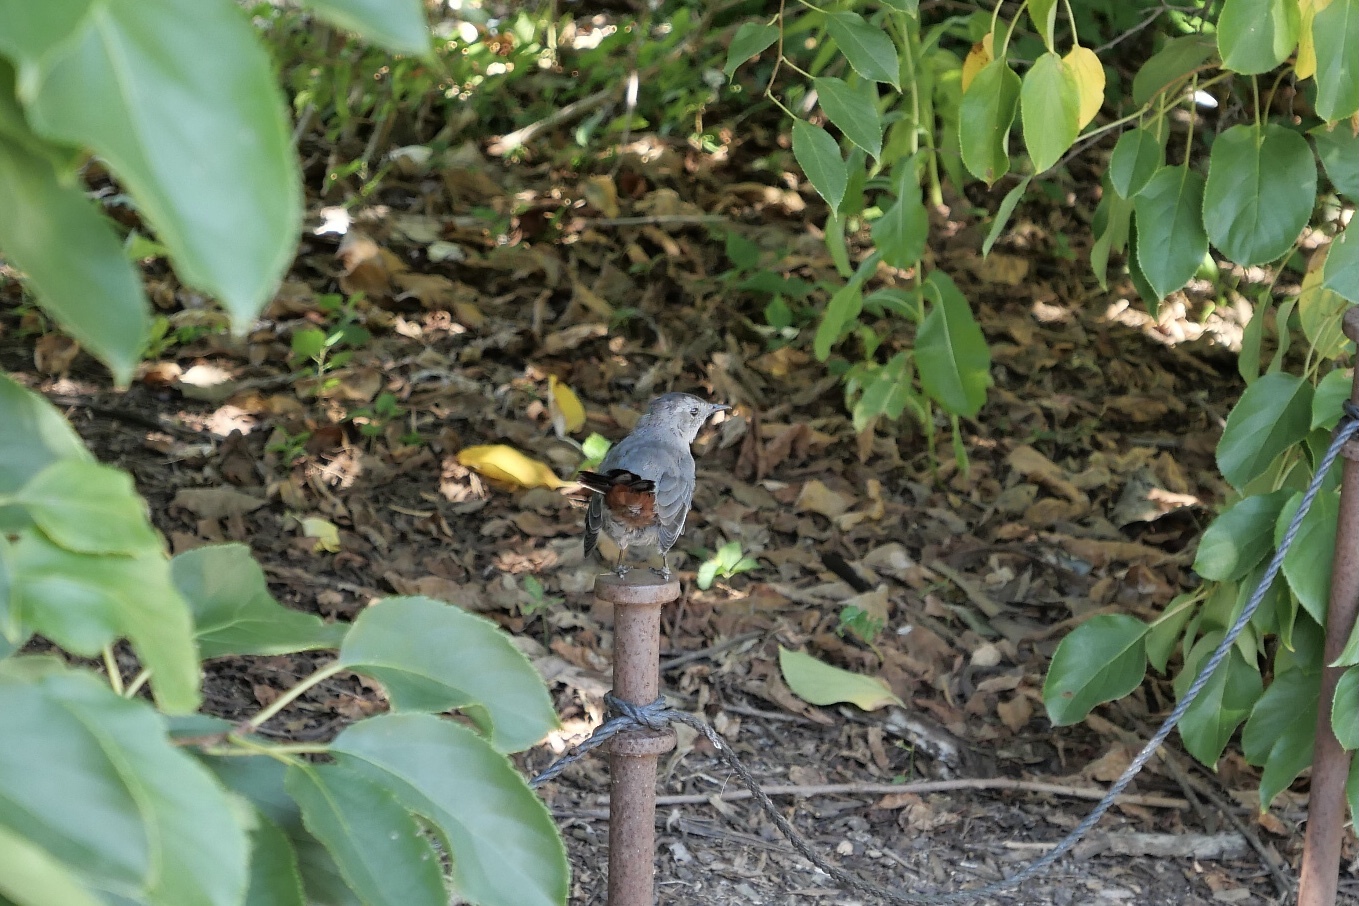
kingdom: Animalia
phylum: Chordata
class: Aves
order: Passeriformes
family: Mimidae
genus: Dumetella
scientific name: Dumetella carolinensis
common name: Gray catbird
